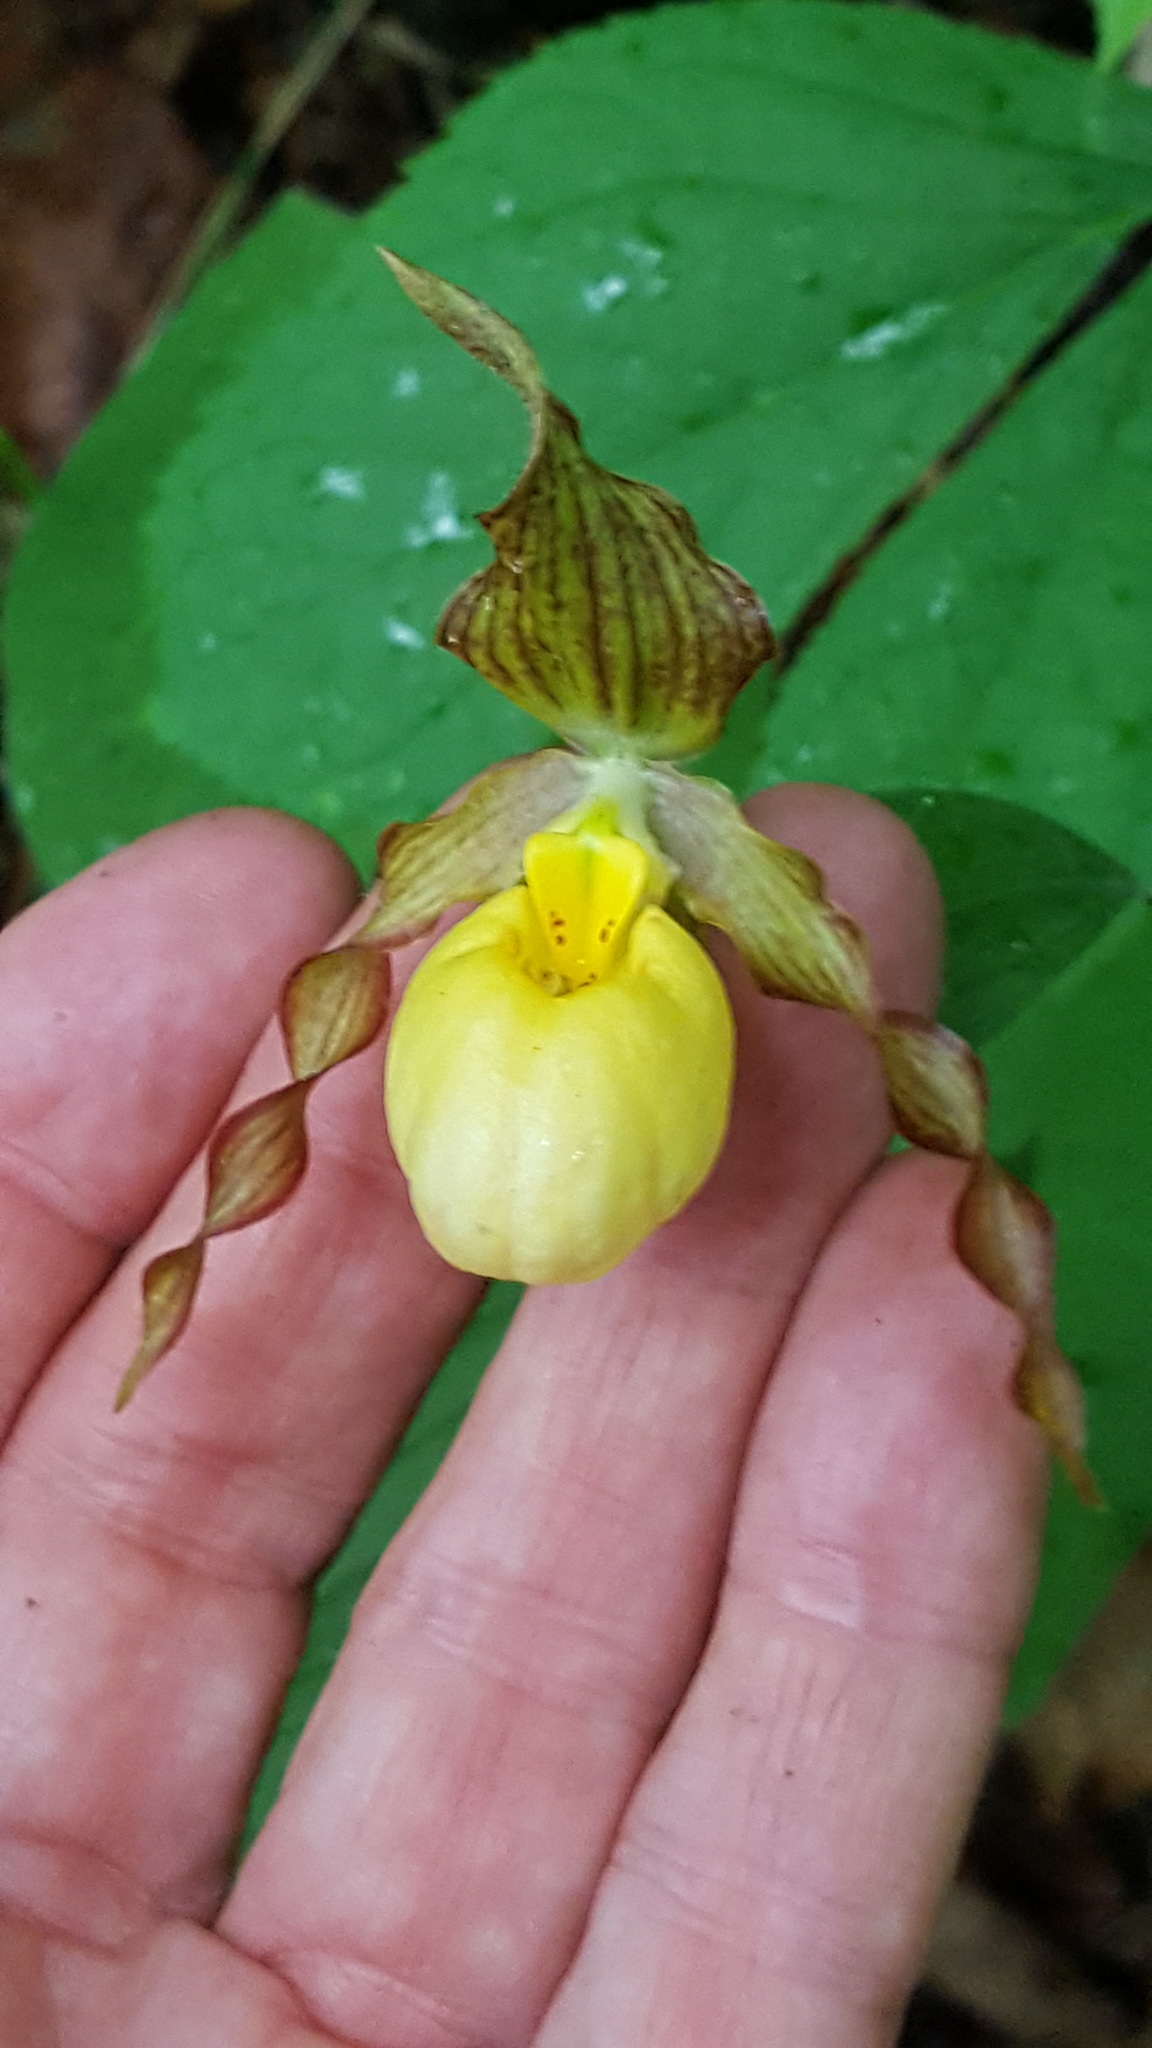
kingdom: Plantae
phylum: Tracheophyta
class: Liliopsida
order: Asparagales
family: Orchidaceae
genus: Cypripedium
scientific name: Cypripedium parviflorum
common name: American yellow lady's-slipper
